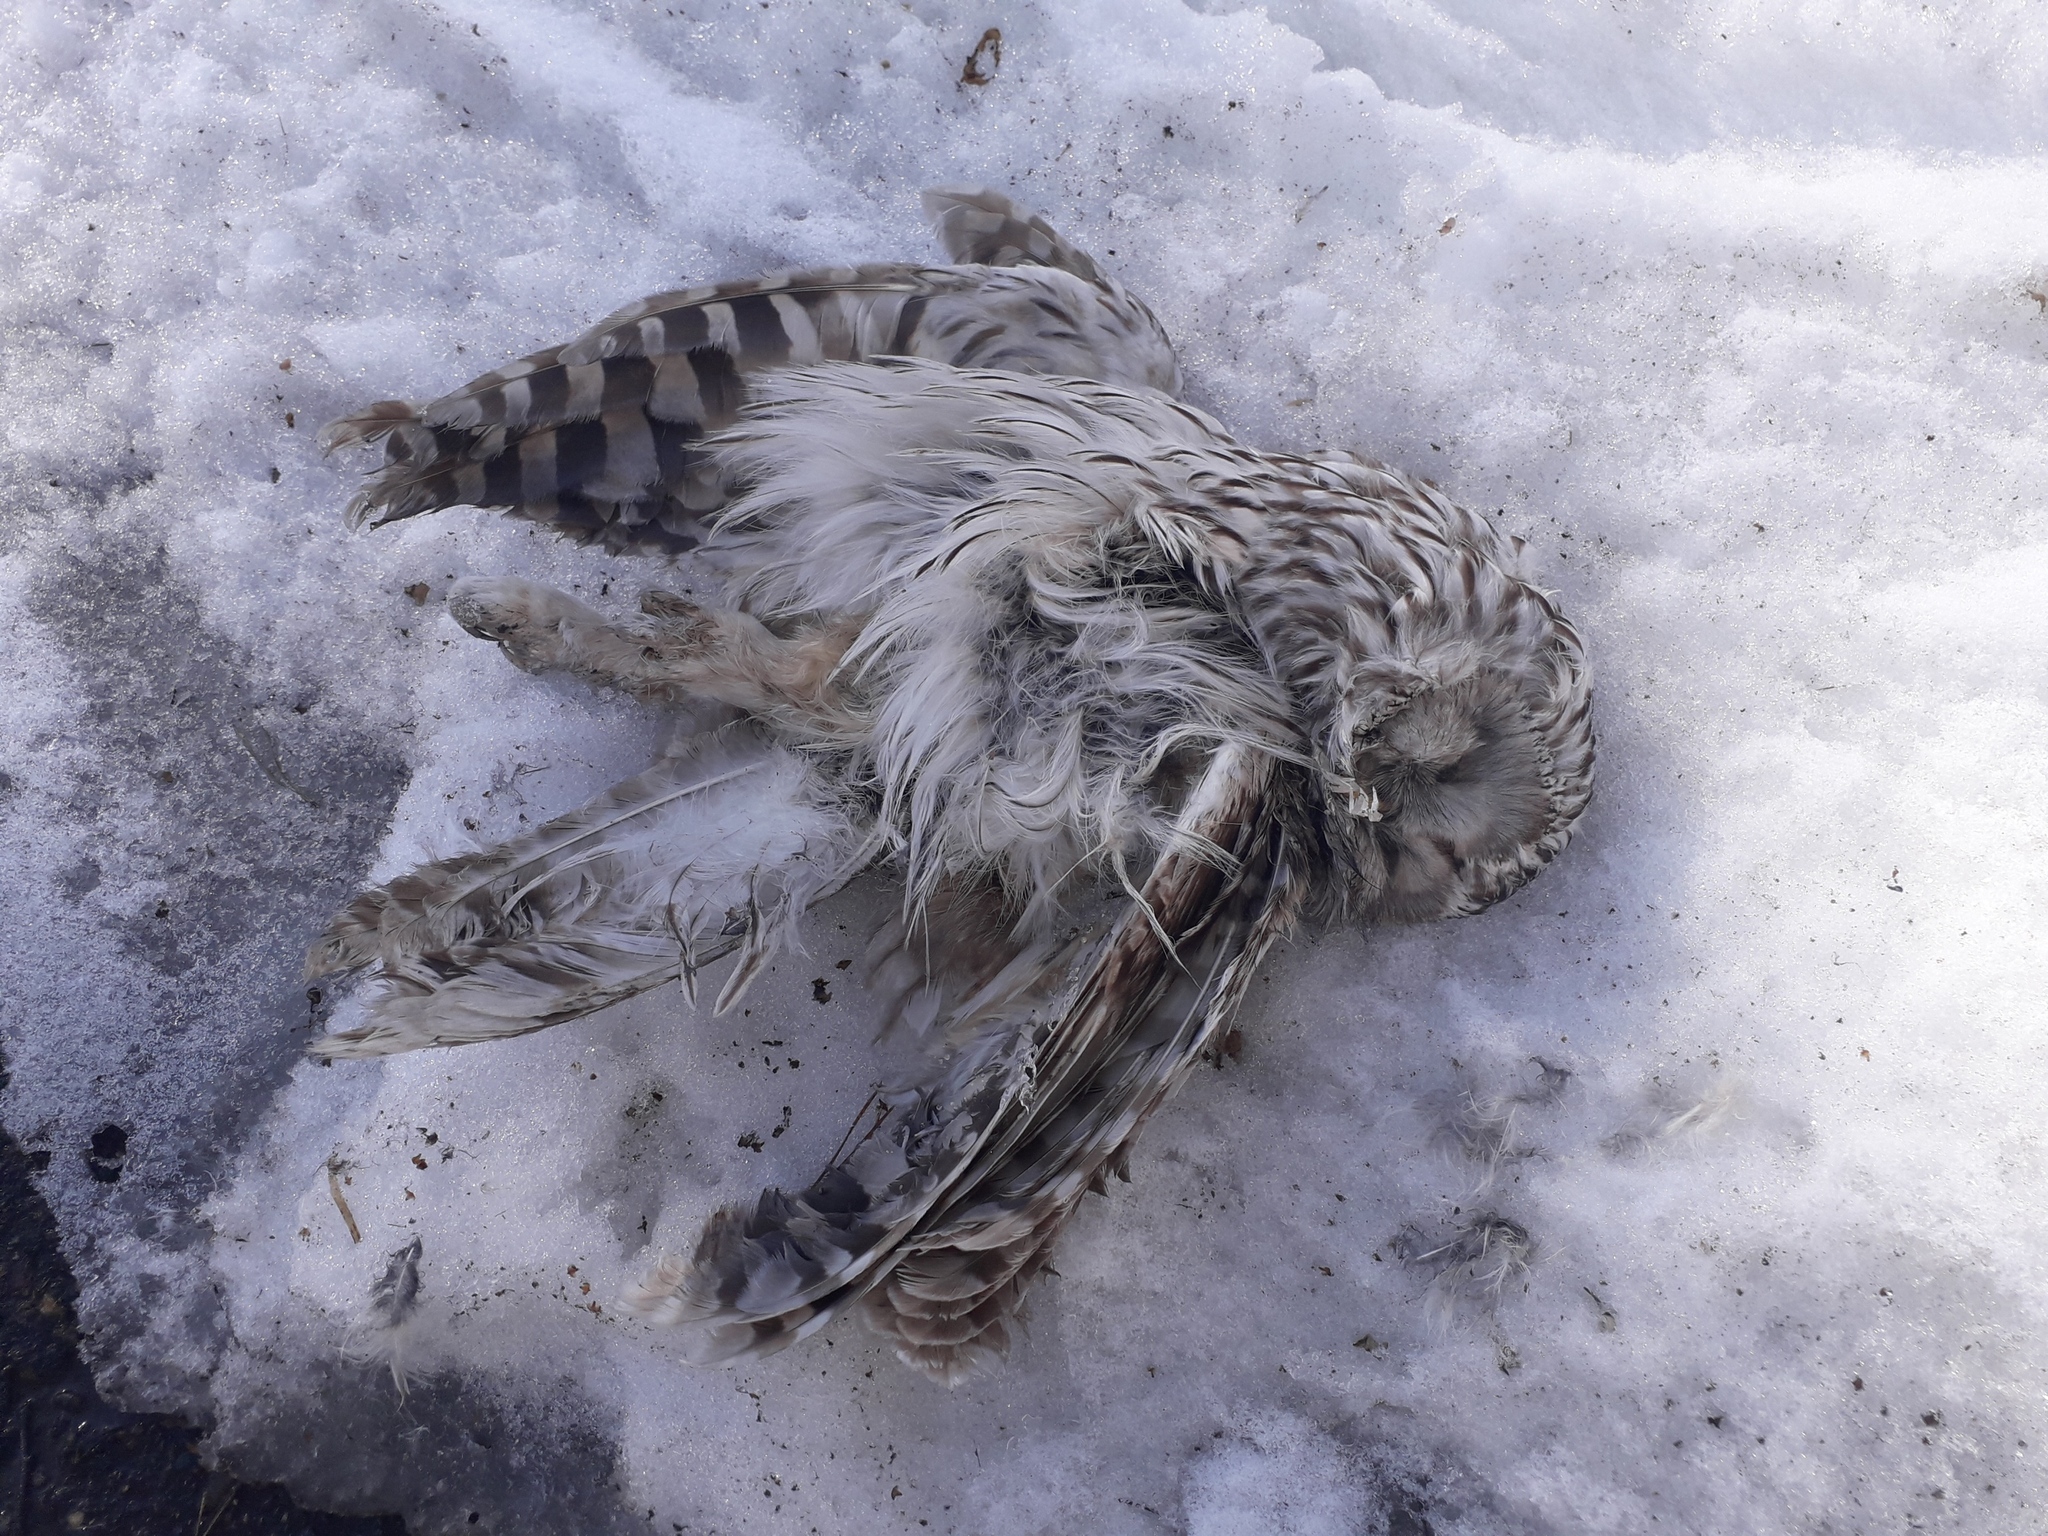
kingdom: Animalia
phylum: Chordata
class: Aves
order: Strigiformes
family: Strigidae
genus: Strix
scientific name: Strix uralensis
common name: Ural owl
